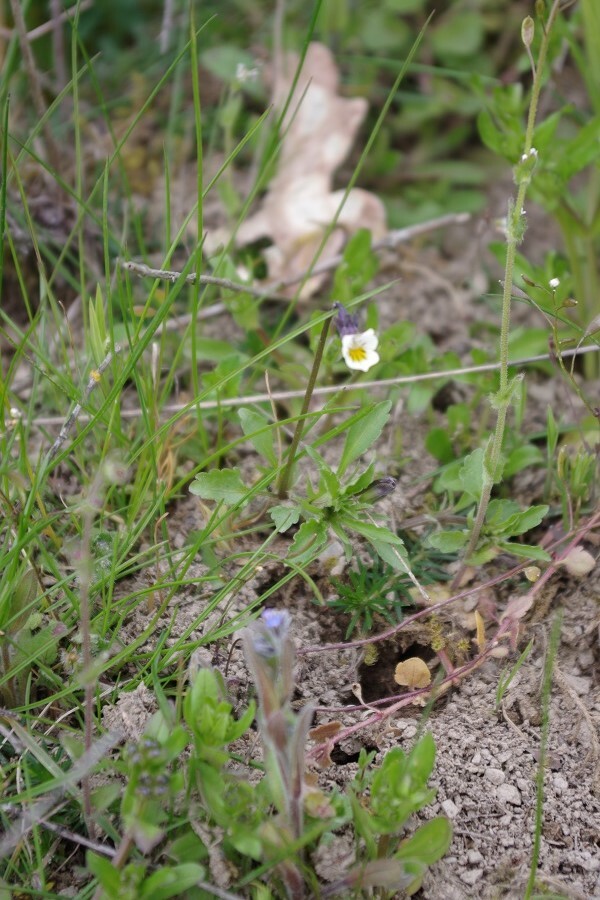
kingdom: Plantae
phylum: Tracheophyta
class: Magnoliopsida
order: Malpighiales
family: Violaceae
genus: Viola
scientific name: Viola arvensis
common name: Field pansy
